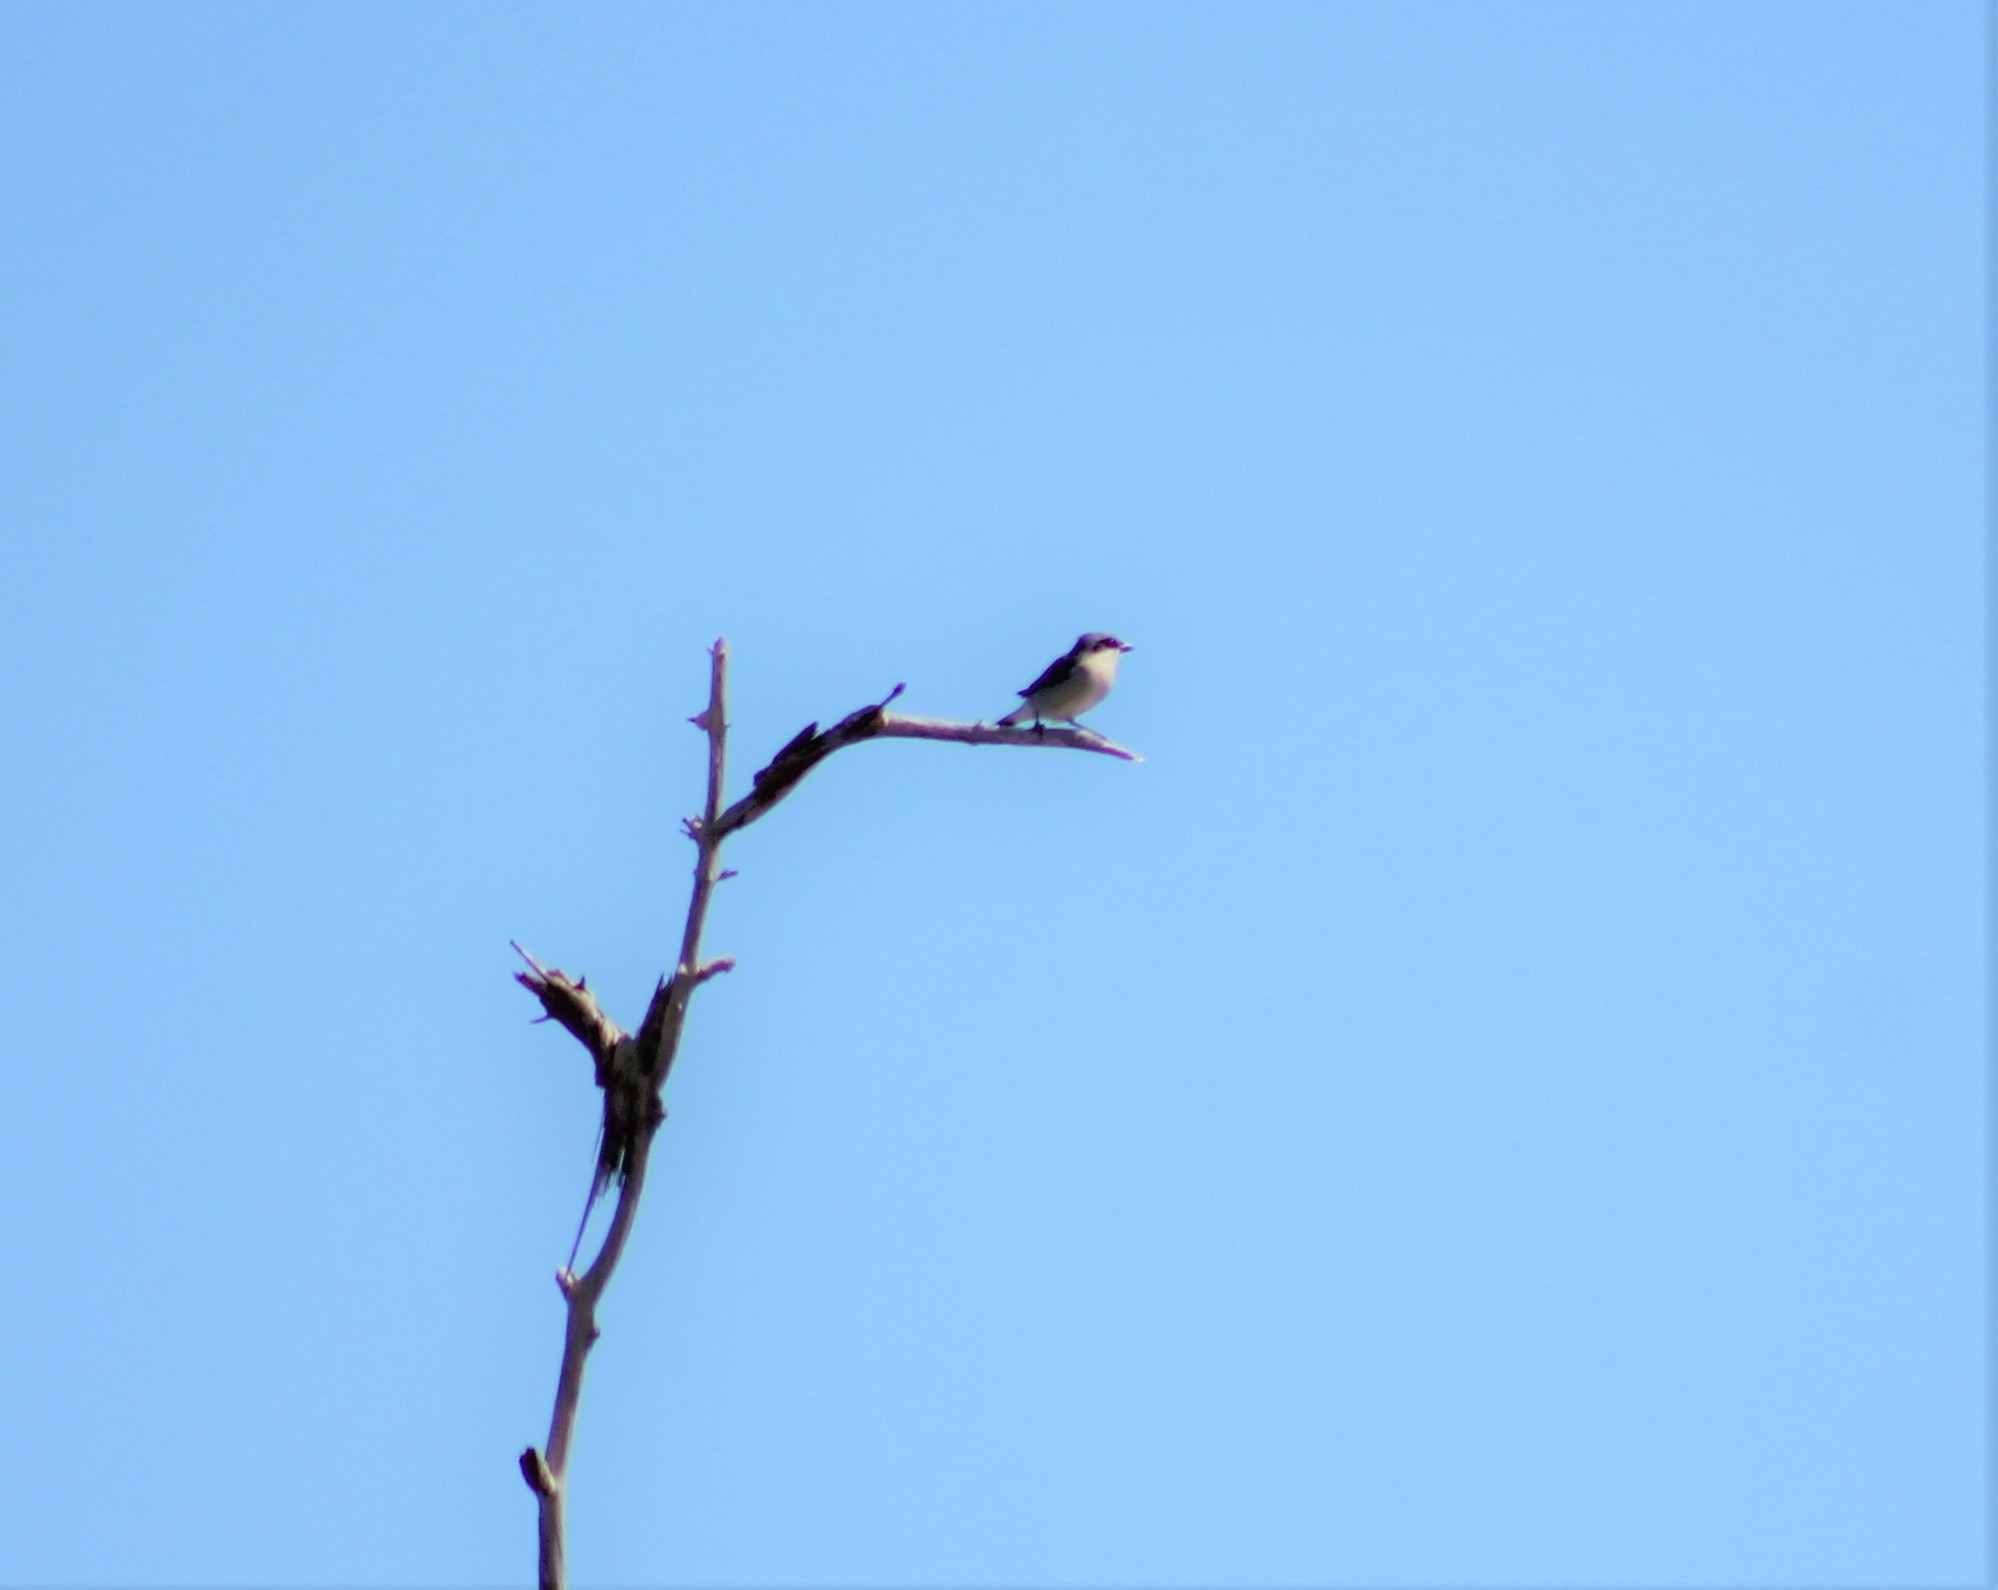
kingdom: Animalia
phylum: Chordata
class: Aves
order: Passeriformes
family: Laniidae
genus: Lanius
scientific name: Lanius ludovicianus
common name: Loggerhead shrike
